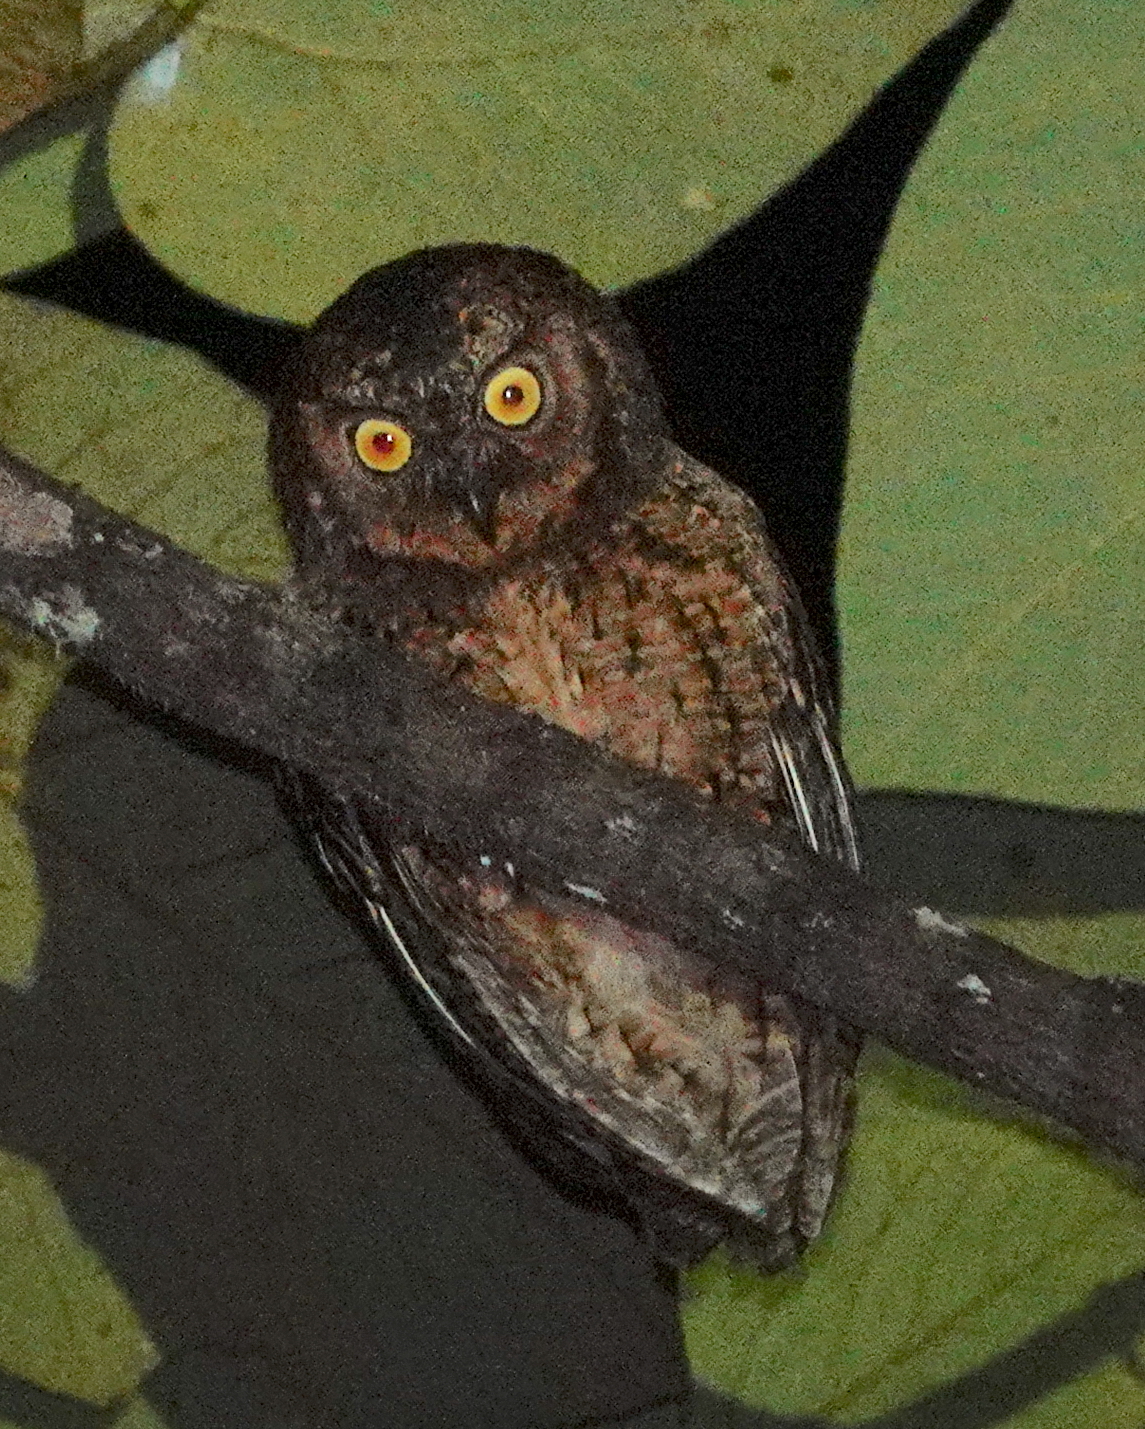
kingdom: Animalia
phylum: Chordata
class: Aves
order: Strigiformes
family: Strigidae
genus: Otus
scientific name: Otus magicus
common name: Moluccan scops owl
